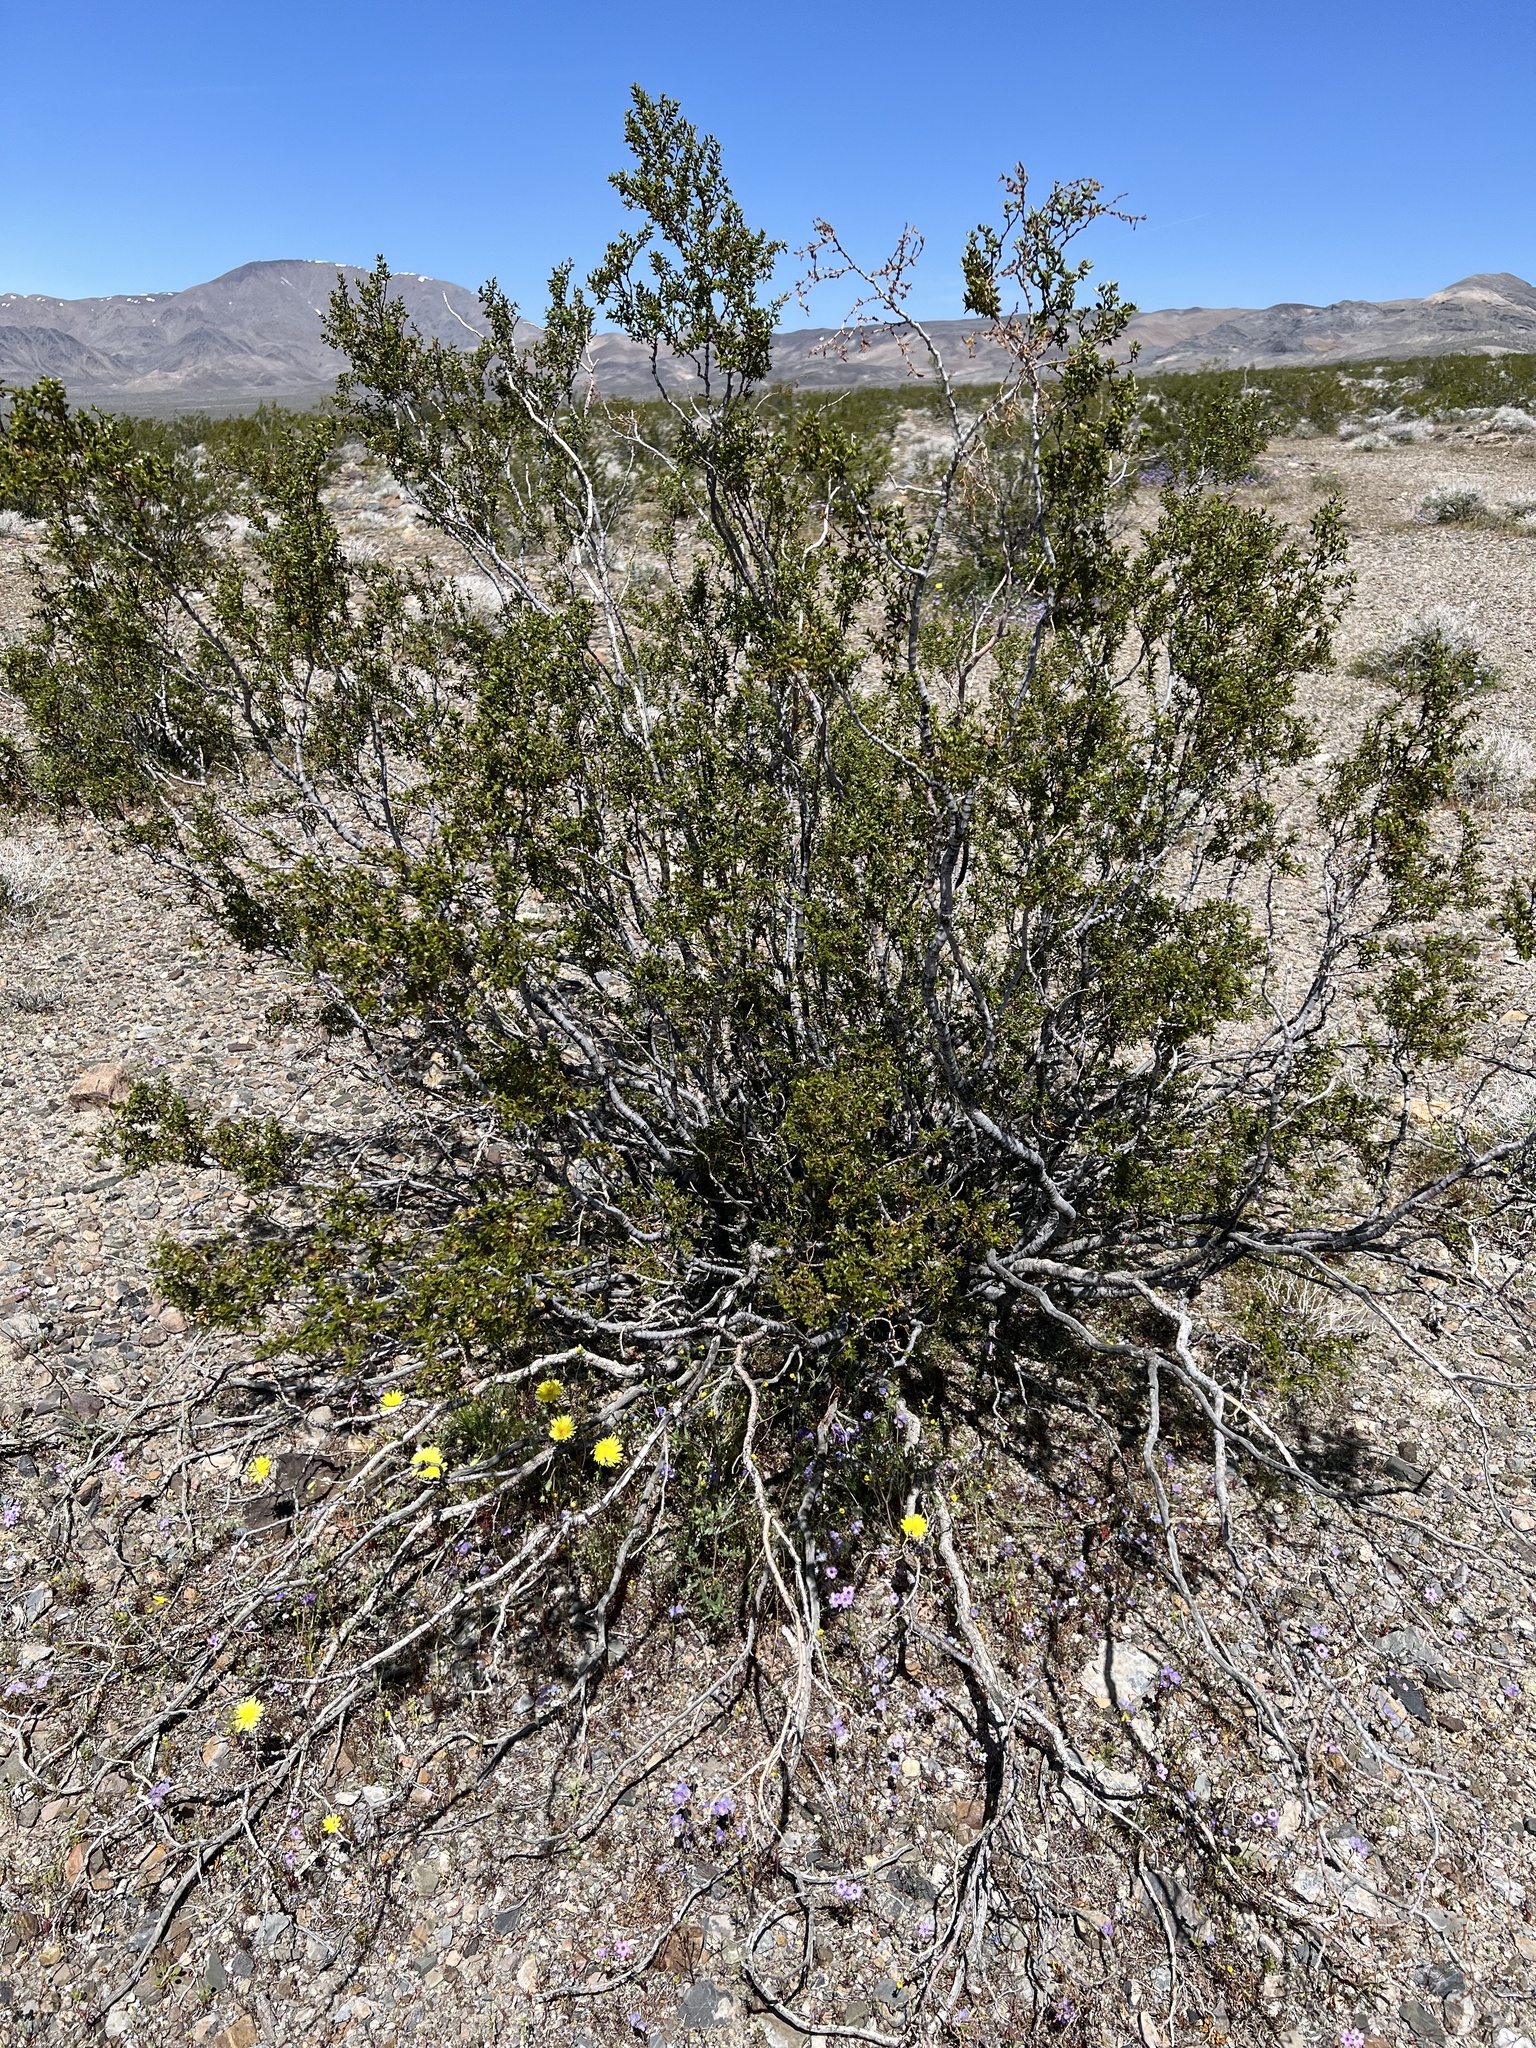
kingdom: Plantae
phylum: Tracheophyta
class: Magnoliopsida
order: Zygophyllales
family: Zygophyllaceae
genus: Larrea
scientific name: Larrea tridentata
